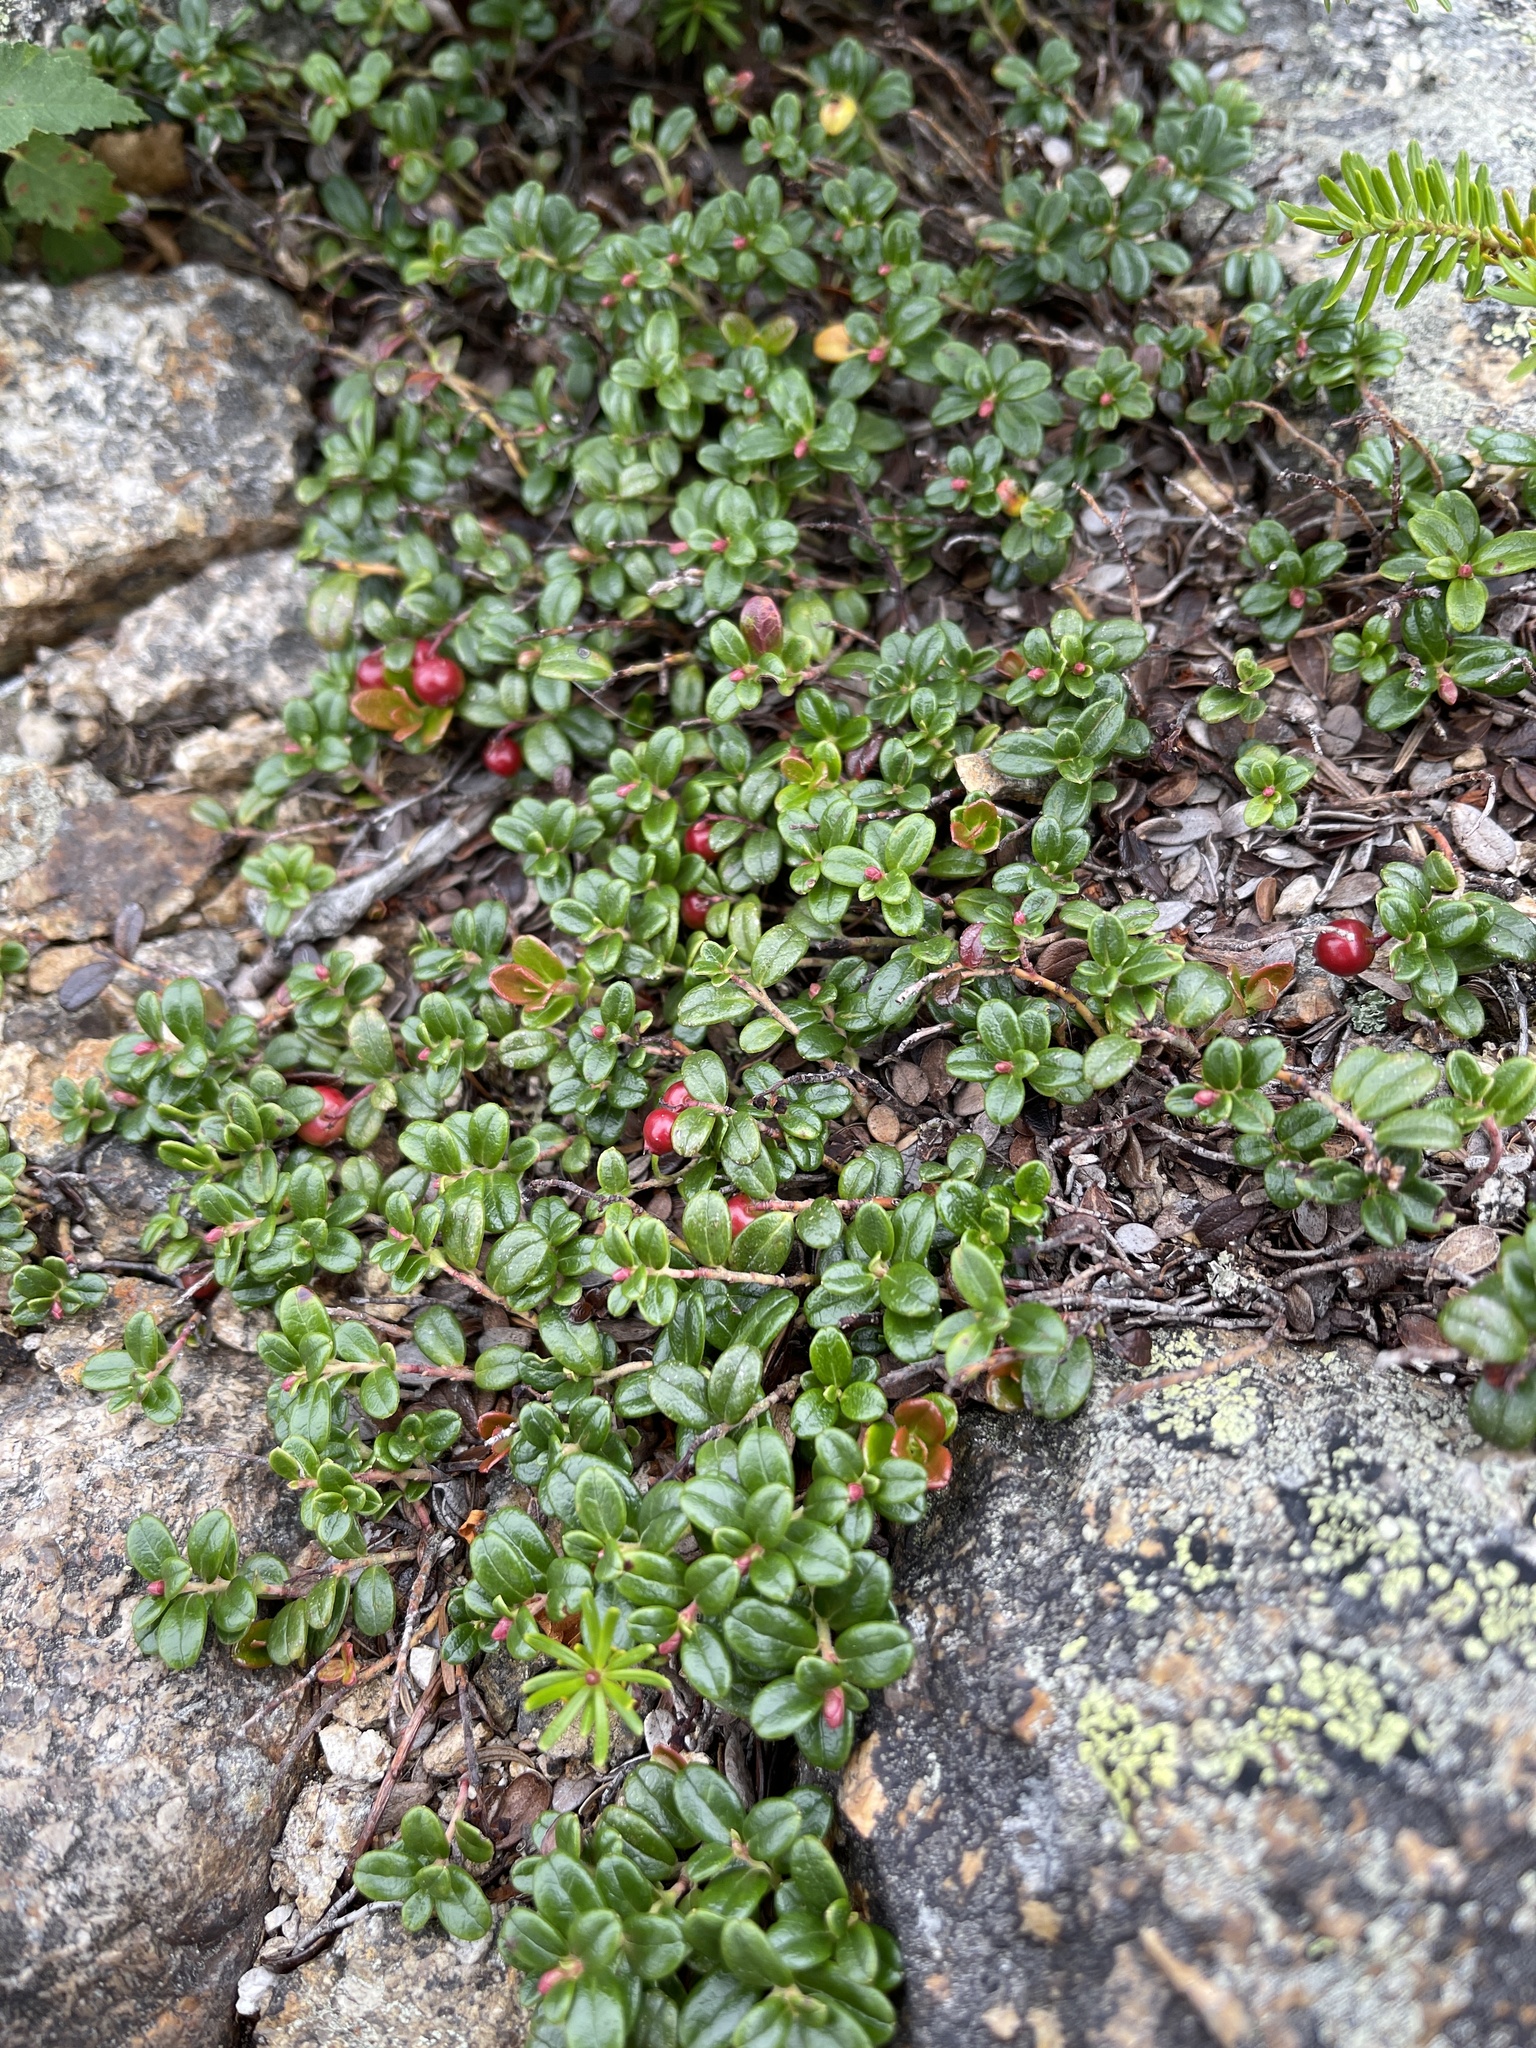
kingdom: Plantae
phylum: Tracheophyta
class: Magnoliopsida
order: Ericales
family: Ericaceae
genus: Vaccinium
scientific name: Vaccinium vitis-idaea
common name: Cowberry
